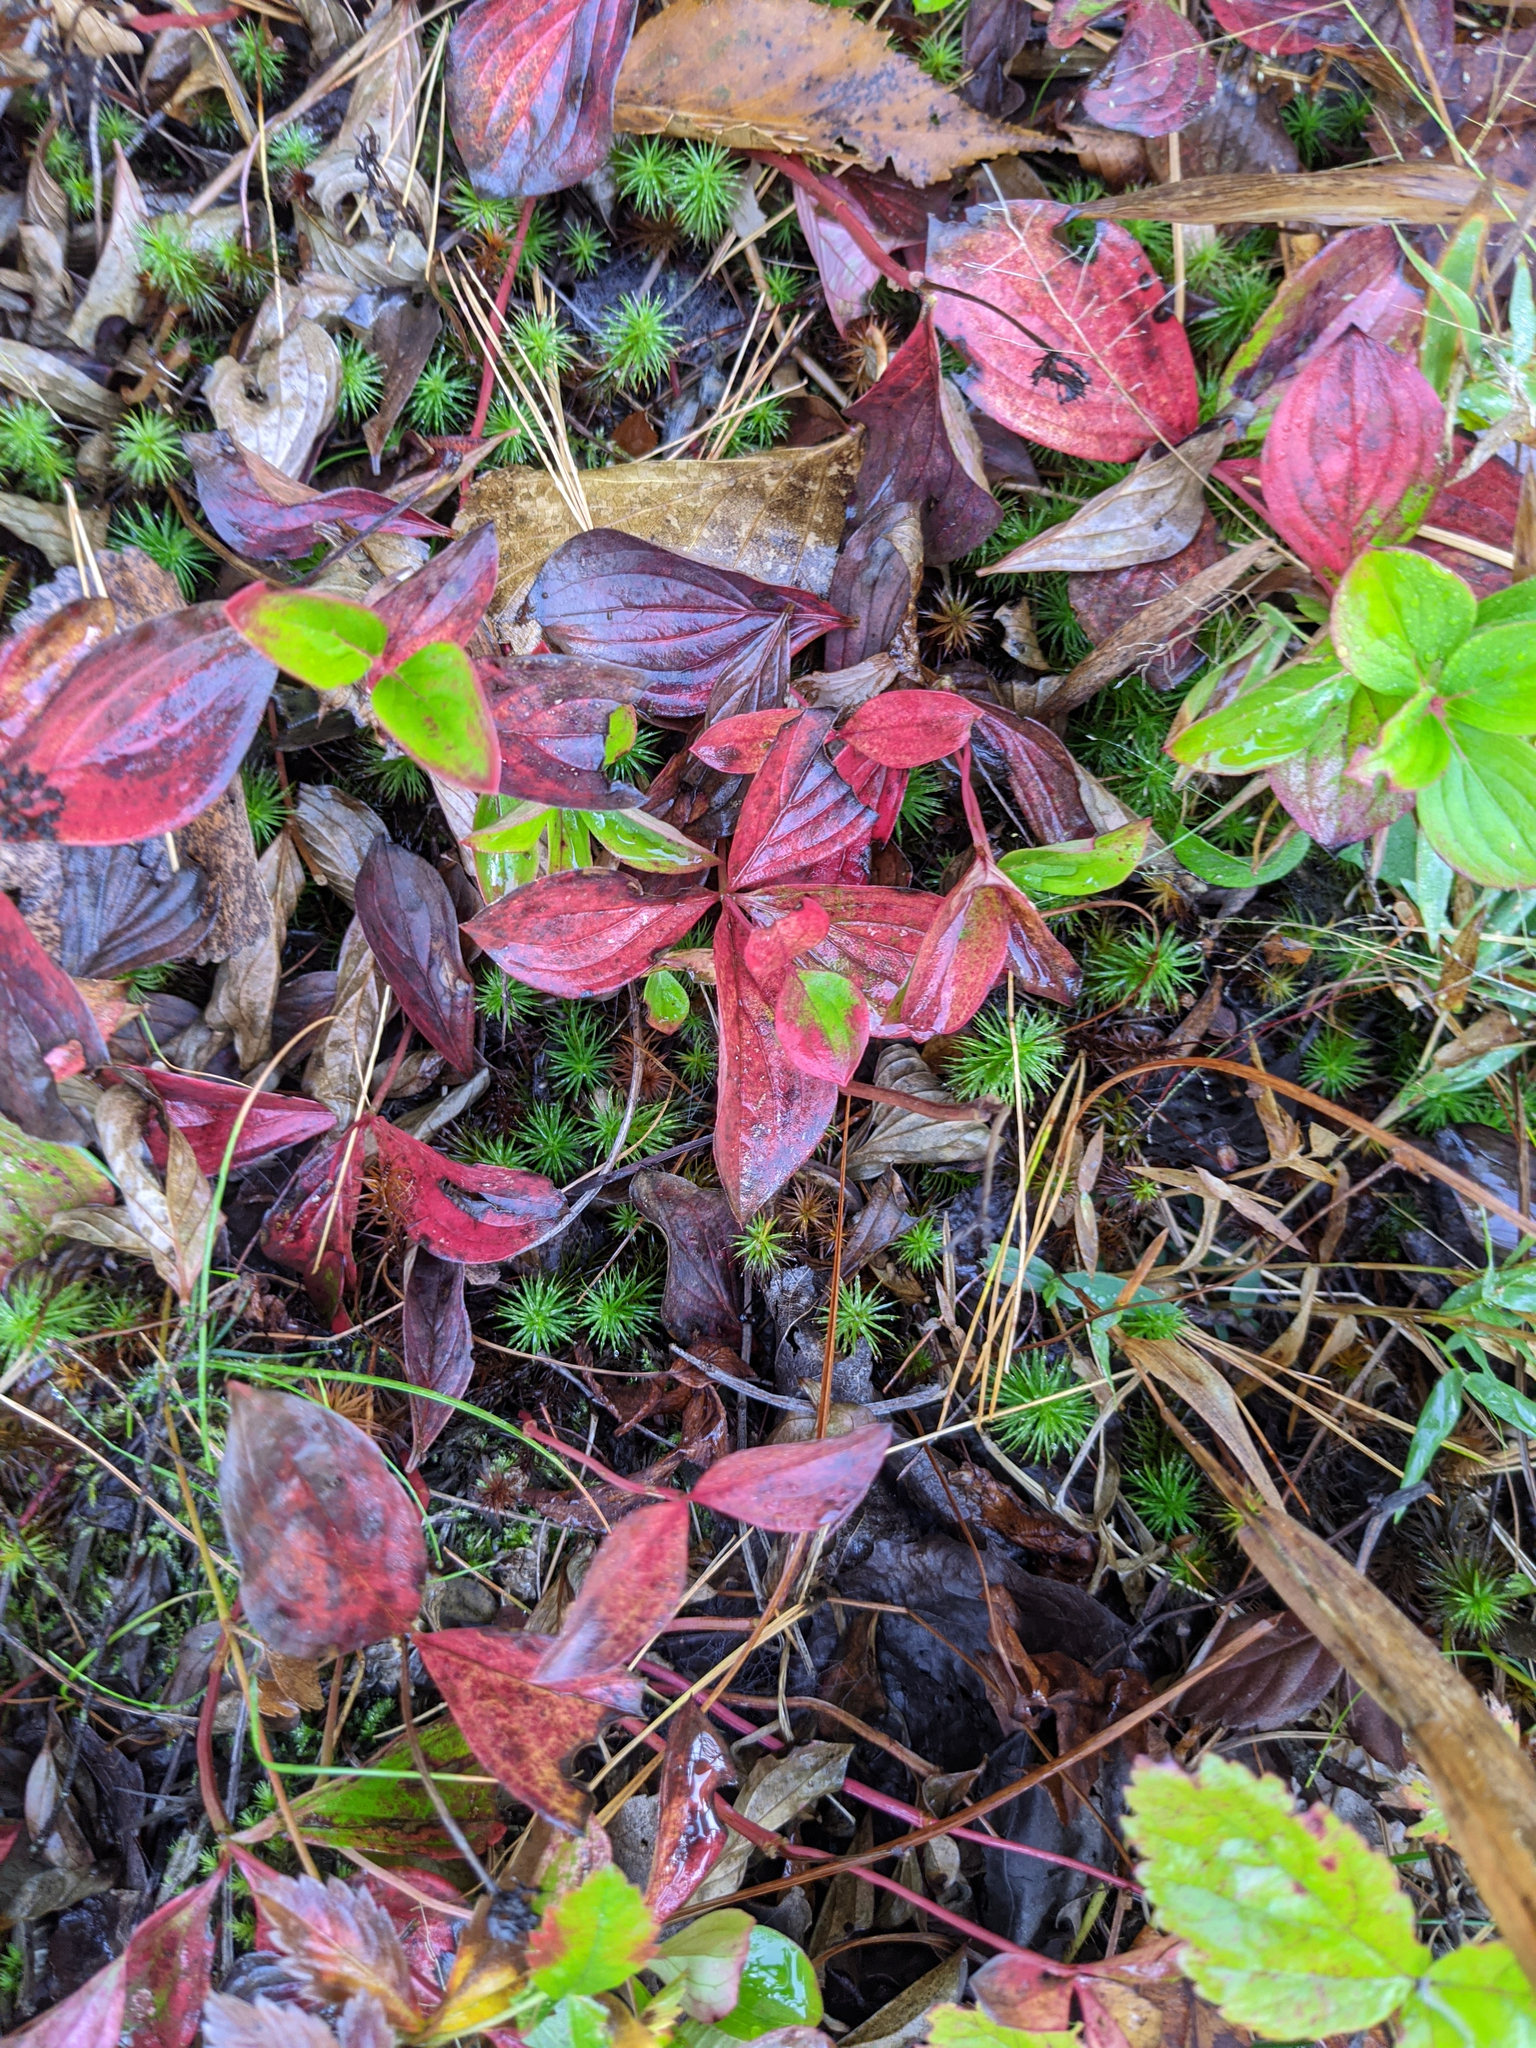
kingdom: Plantae
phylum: Tracheophyta
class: Magnoliopsida
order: Cornales
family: Cornaceae
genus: Cornus
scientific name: Cornus canadensis
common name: Creeping dogwood
